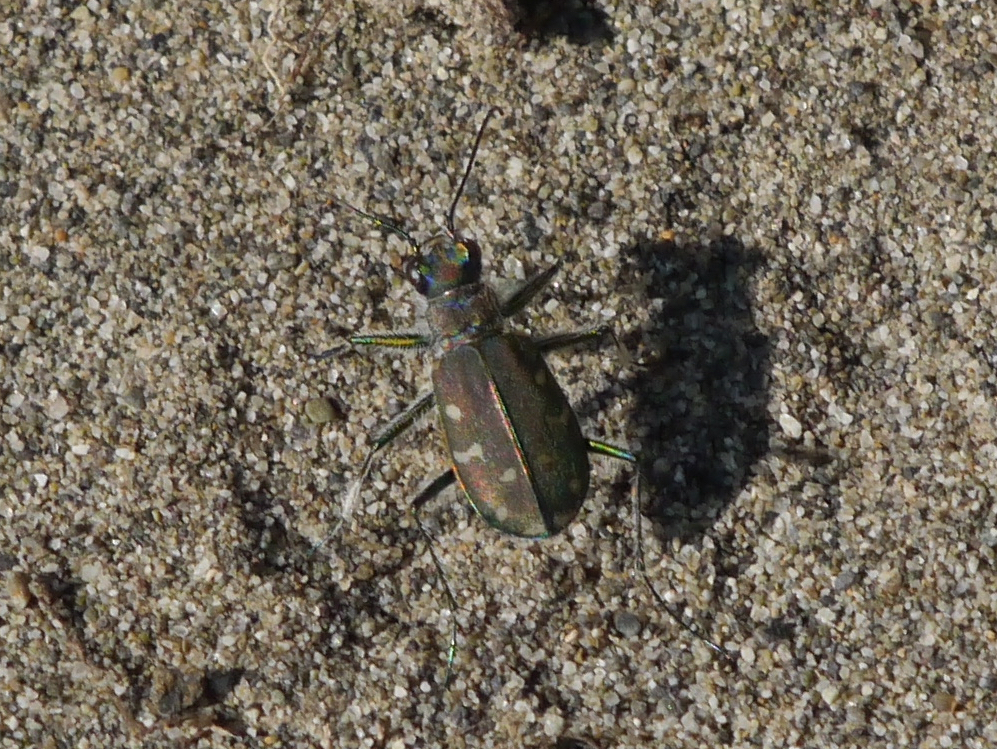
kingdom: Animalia
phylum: Arthropoda
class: Insecta
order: Coleoptera
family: Carabidae
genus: Cicindela
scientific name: Cicindela oregona
